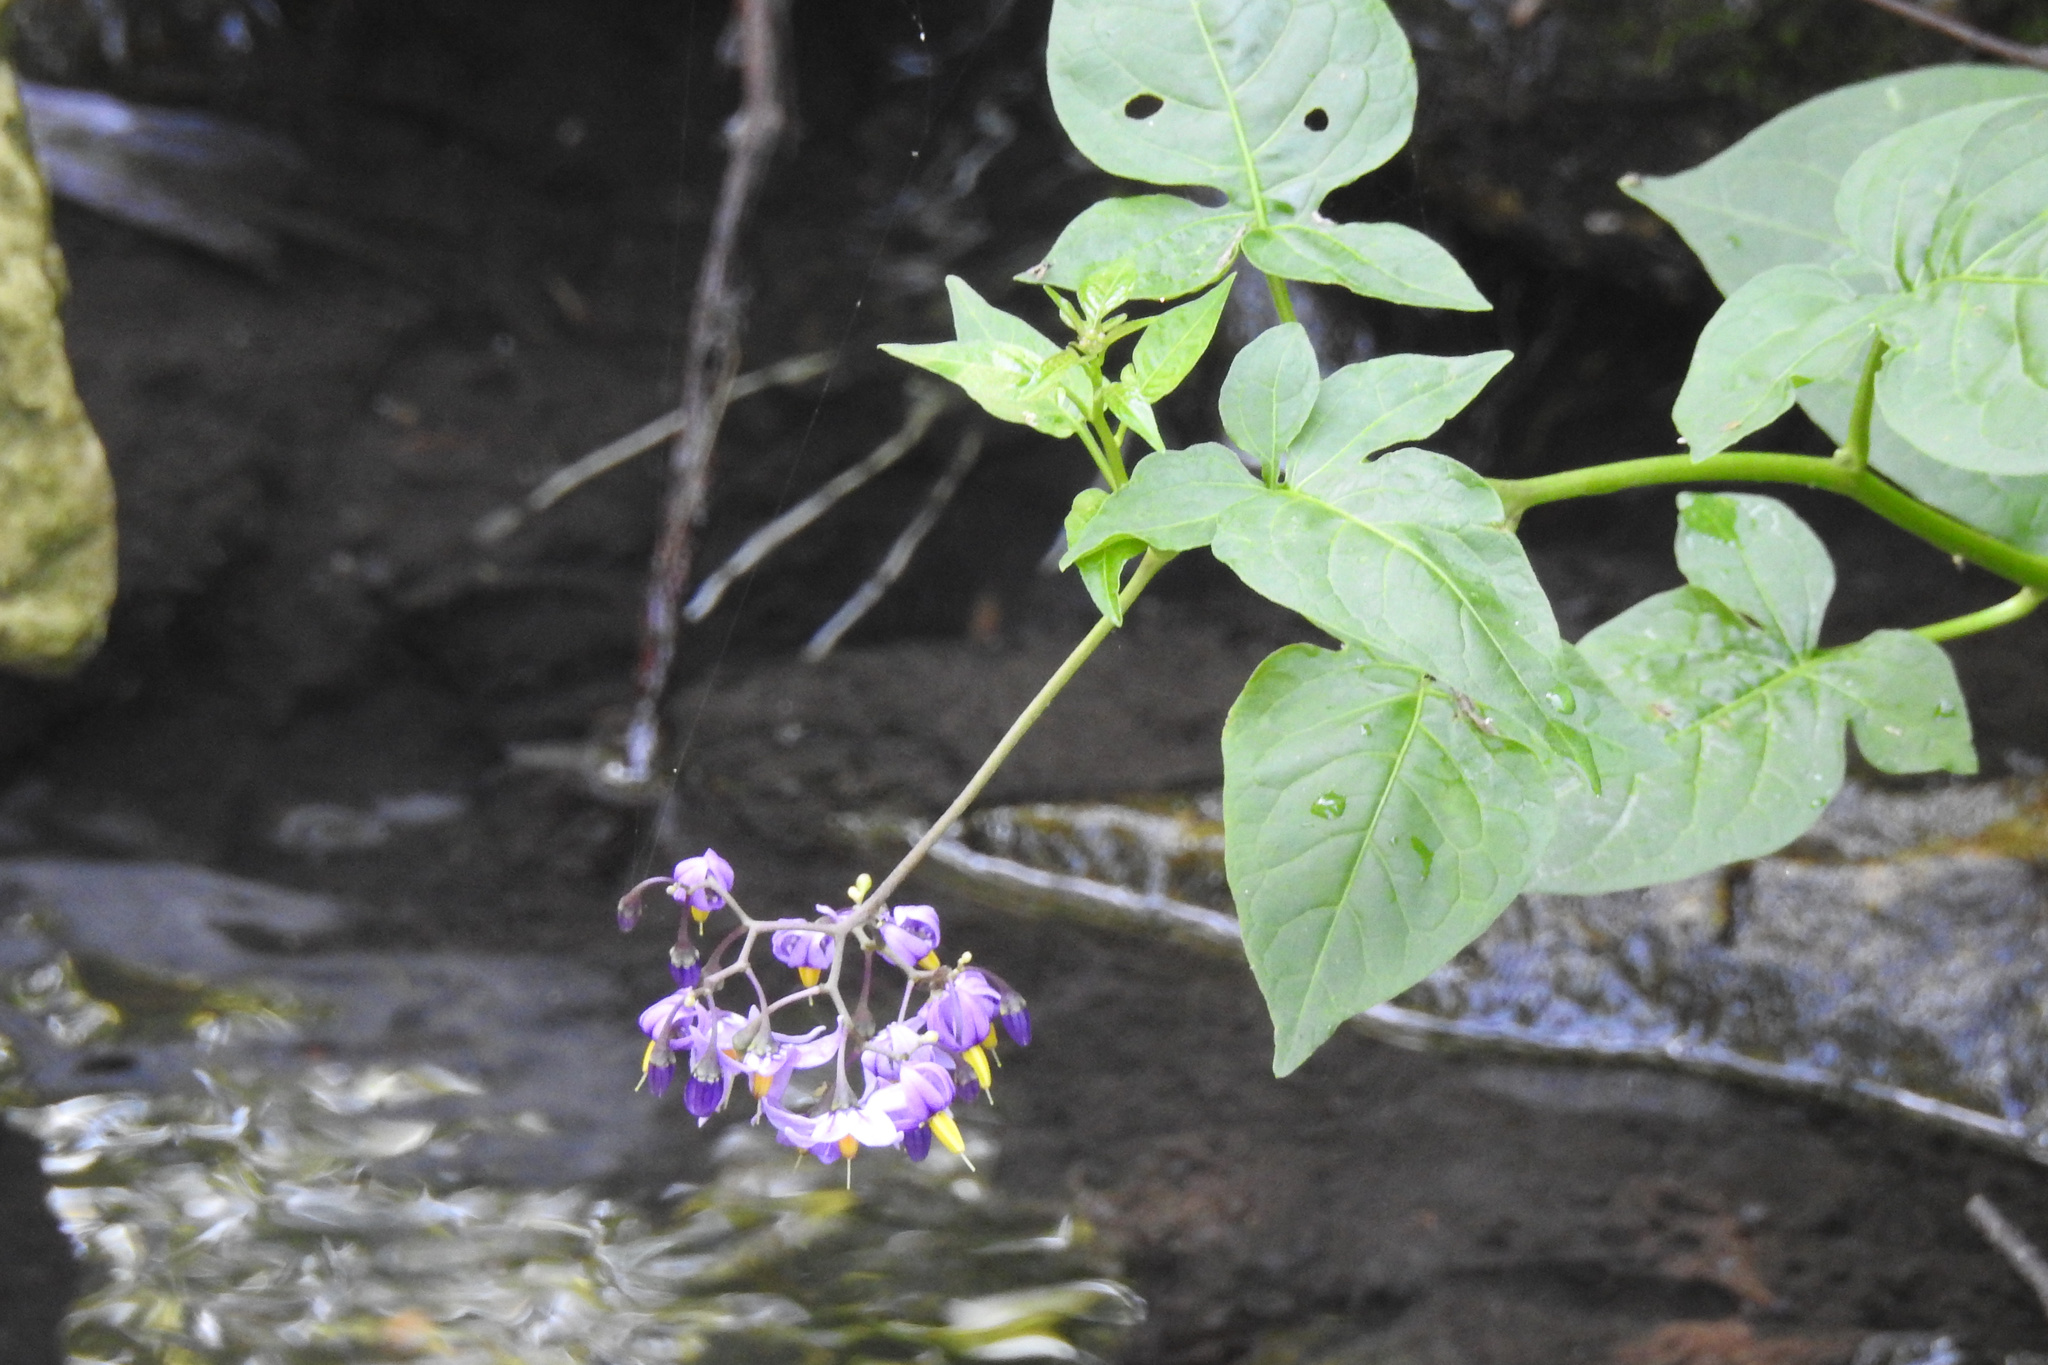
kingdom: Plantae
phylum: Tracheophyta
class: Magnoliopsida
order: Solanales
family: Solanaceae
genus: Solanum
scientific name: Solanum dulcamara
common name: Climbing nightshade
